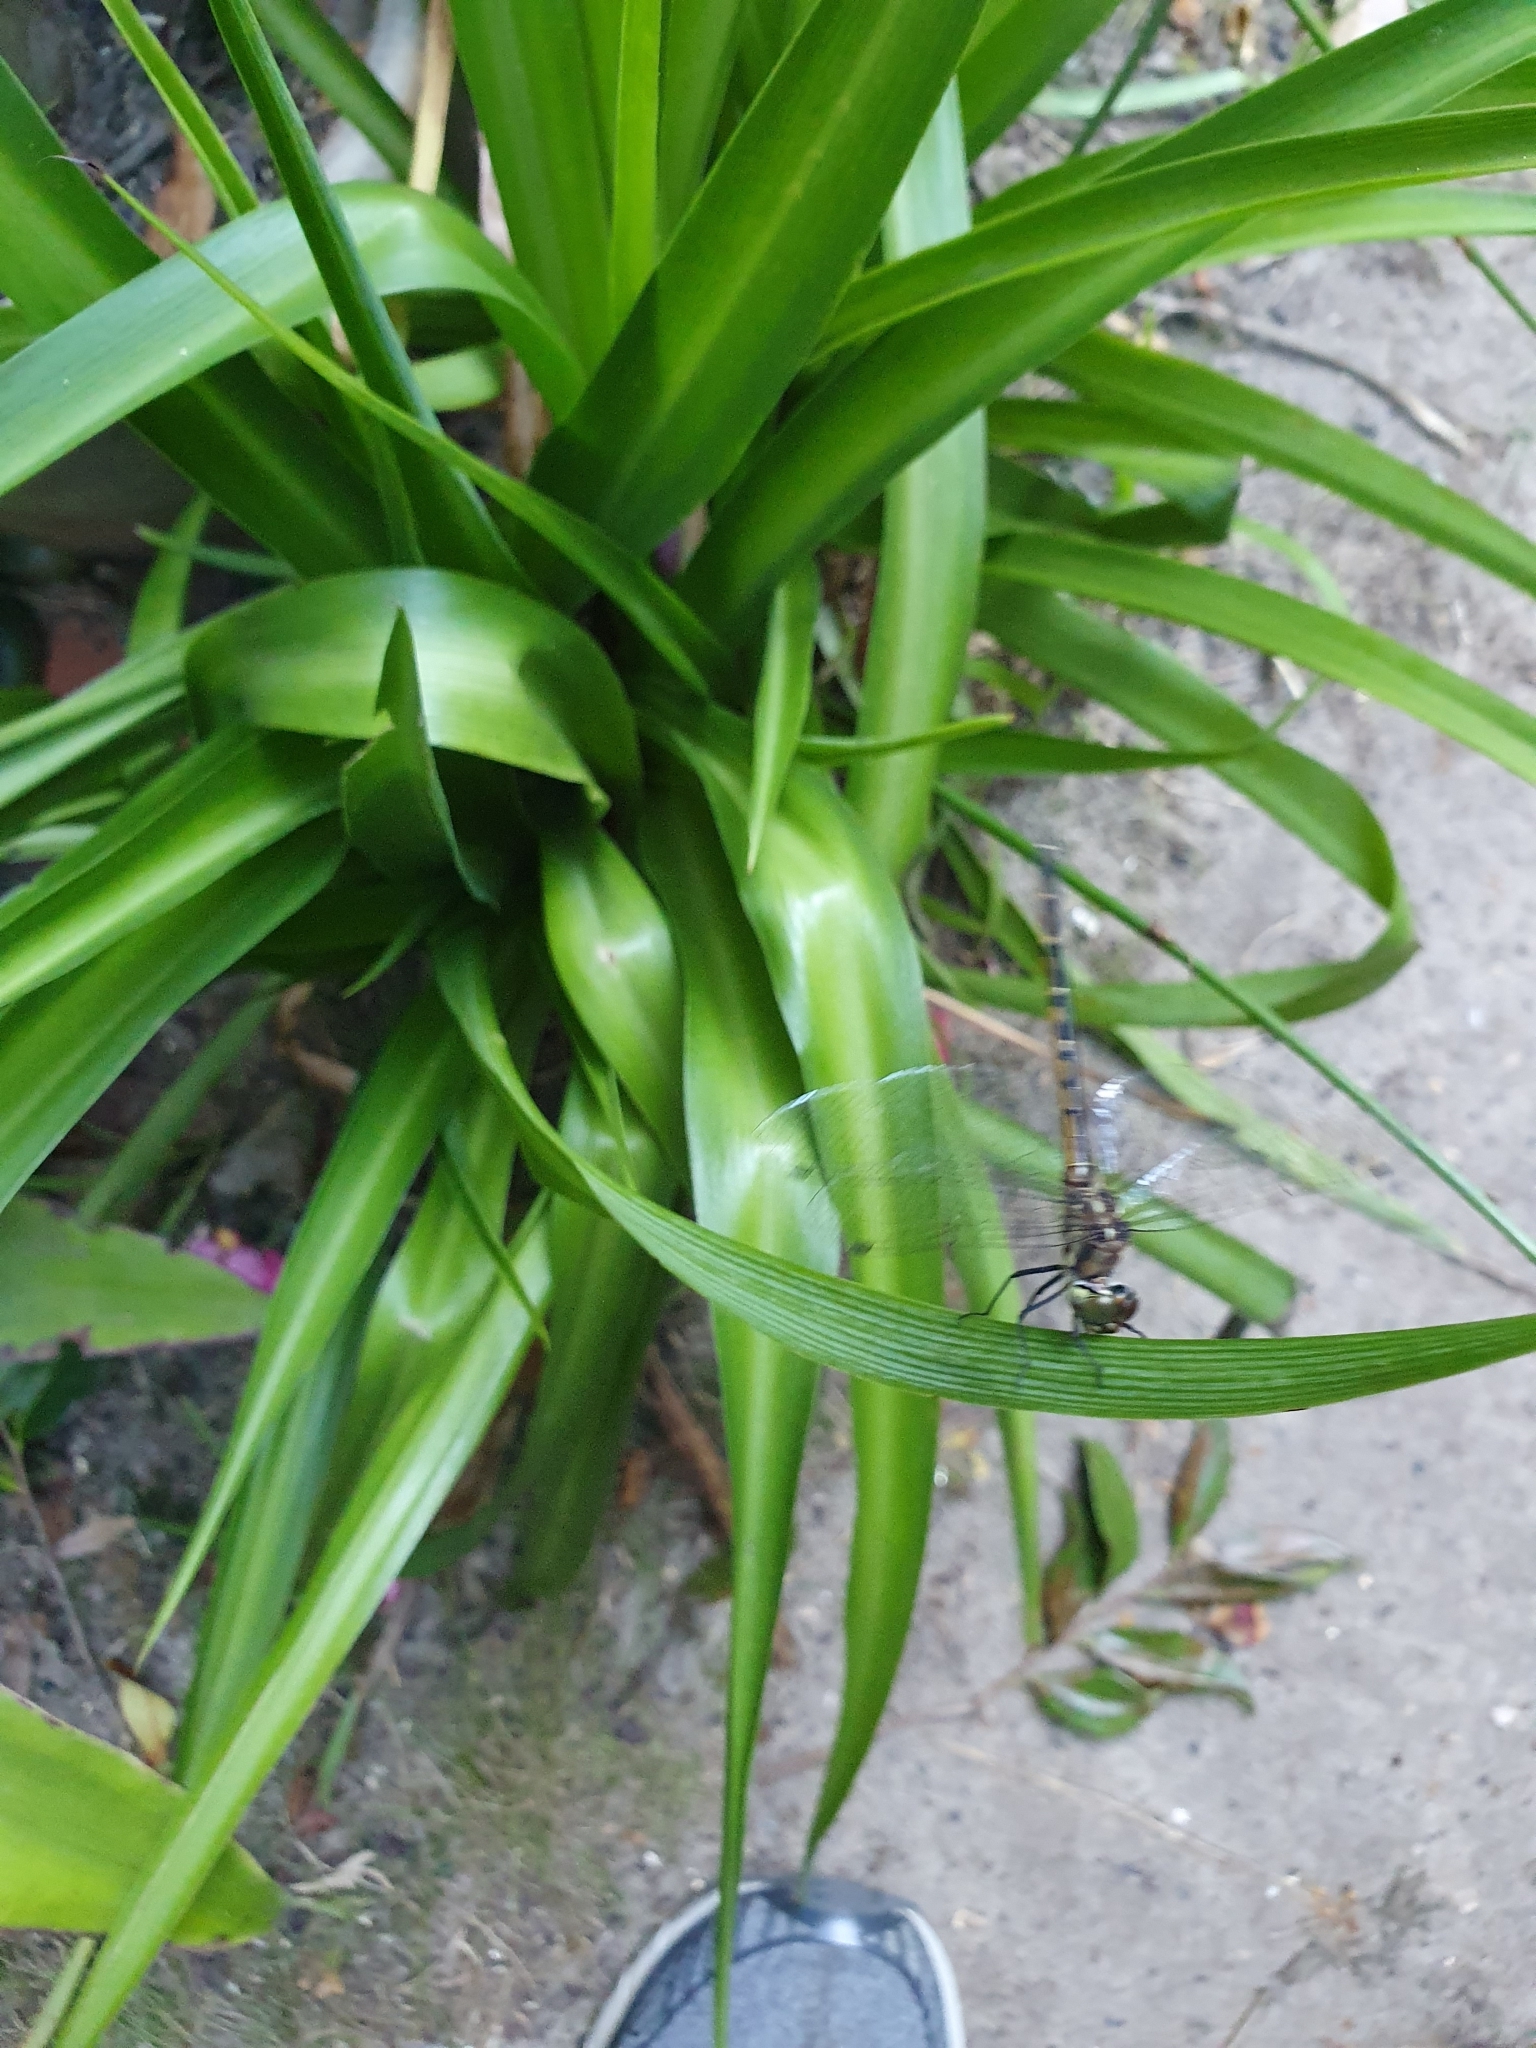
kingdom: Animalia
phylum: Arthropoda
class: Insecta
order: Odonata
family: Corduliidae
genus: Hemicordulia
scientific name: Hemicordulia australiae
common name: Sentry dragonfly
